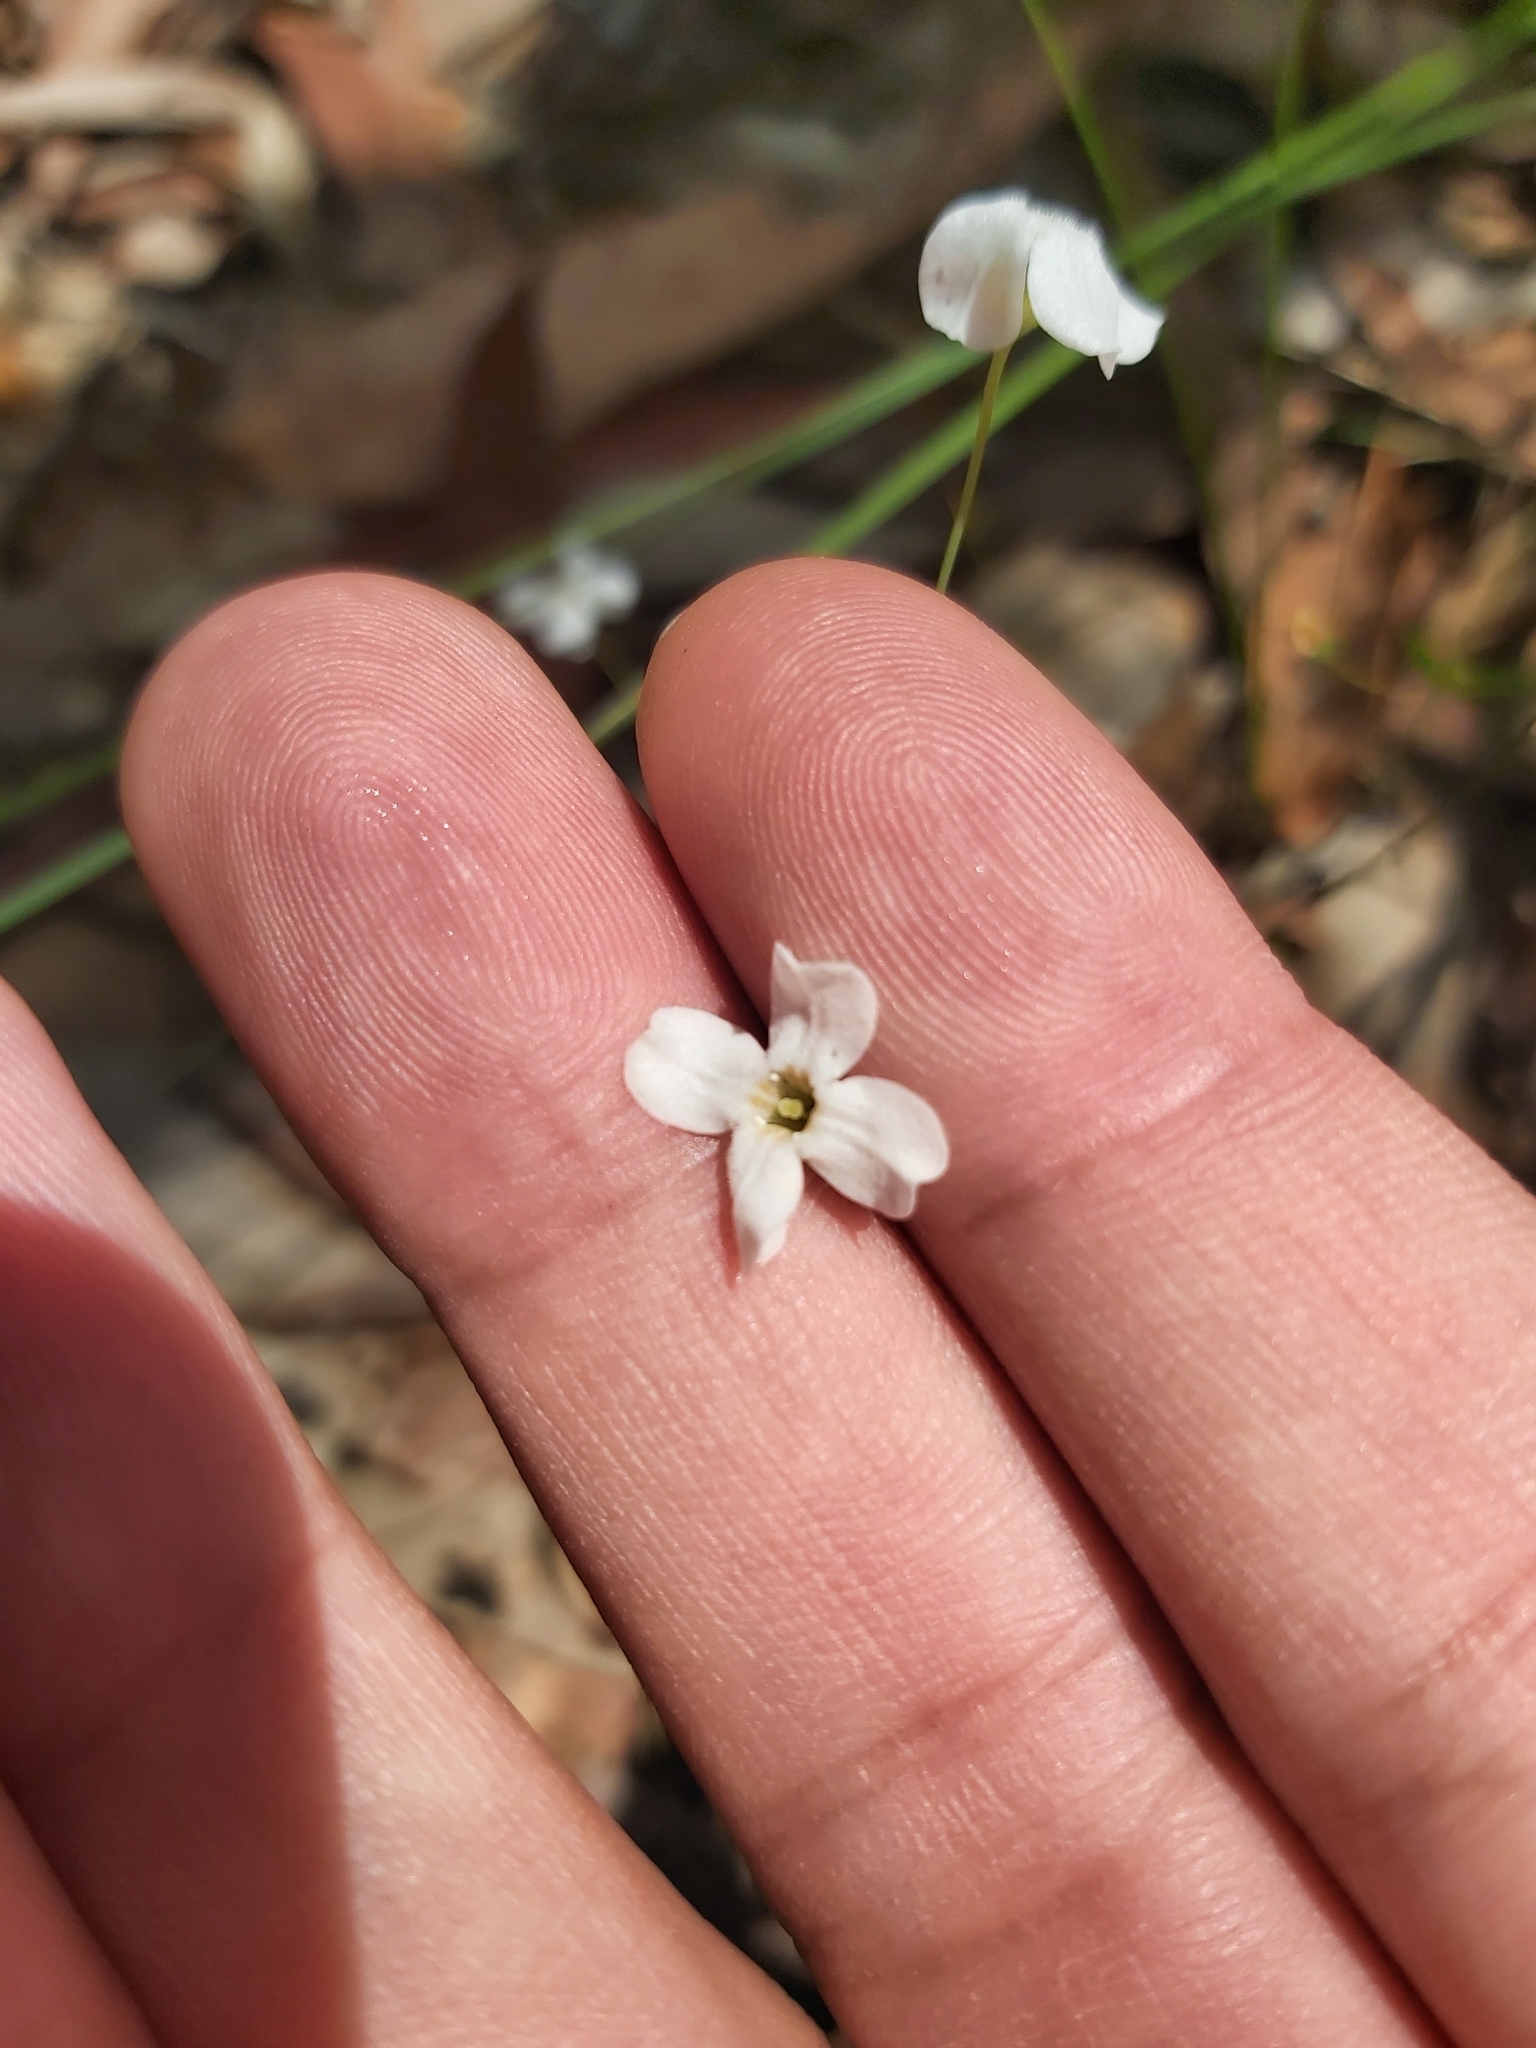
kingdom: Plantae
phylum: Tracheophyta
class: Magnoliopsida
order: Gentianales
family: Loganiaceae
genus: Mitrasacme
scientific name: Mitrasacme polymorpha
